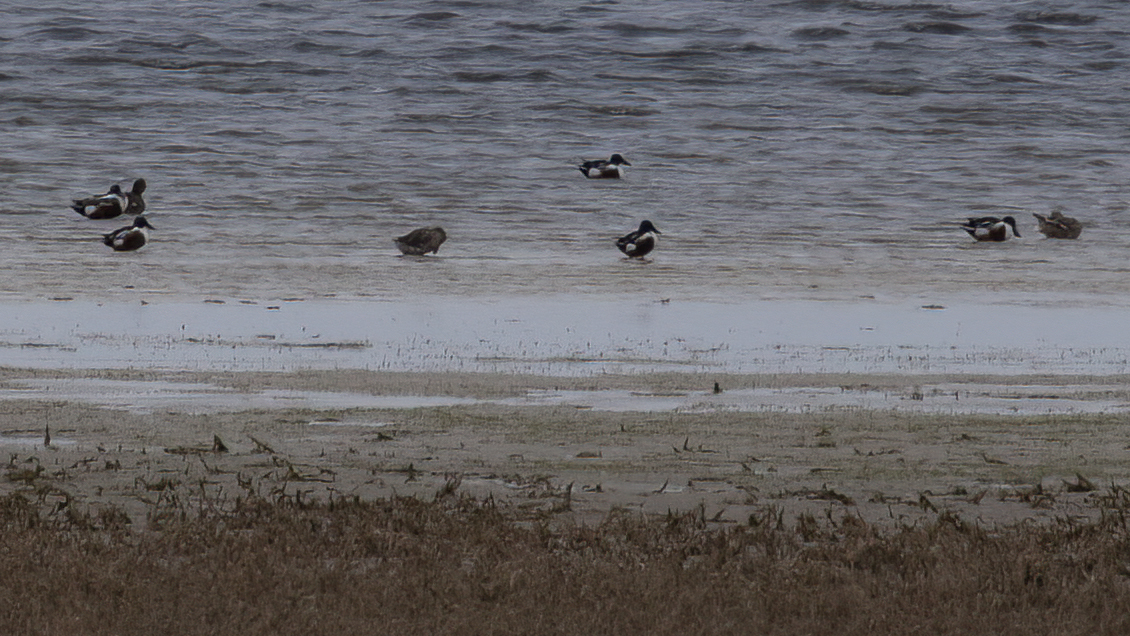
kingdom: Animalia
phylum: Chordata
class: Aves
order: Anseriformes
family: Anatidae
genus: Spatula
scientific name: Spatula clypeata
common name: Northern shoveler
